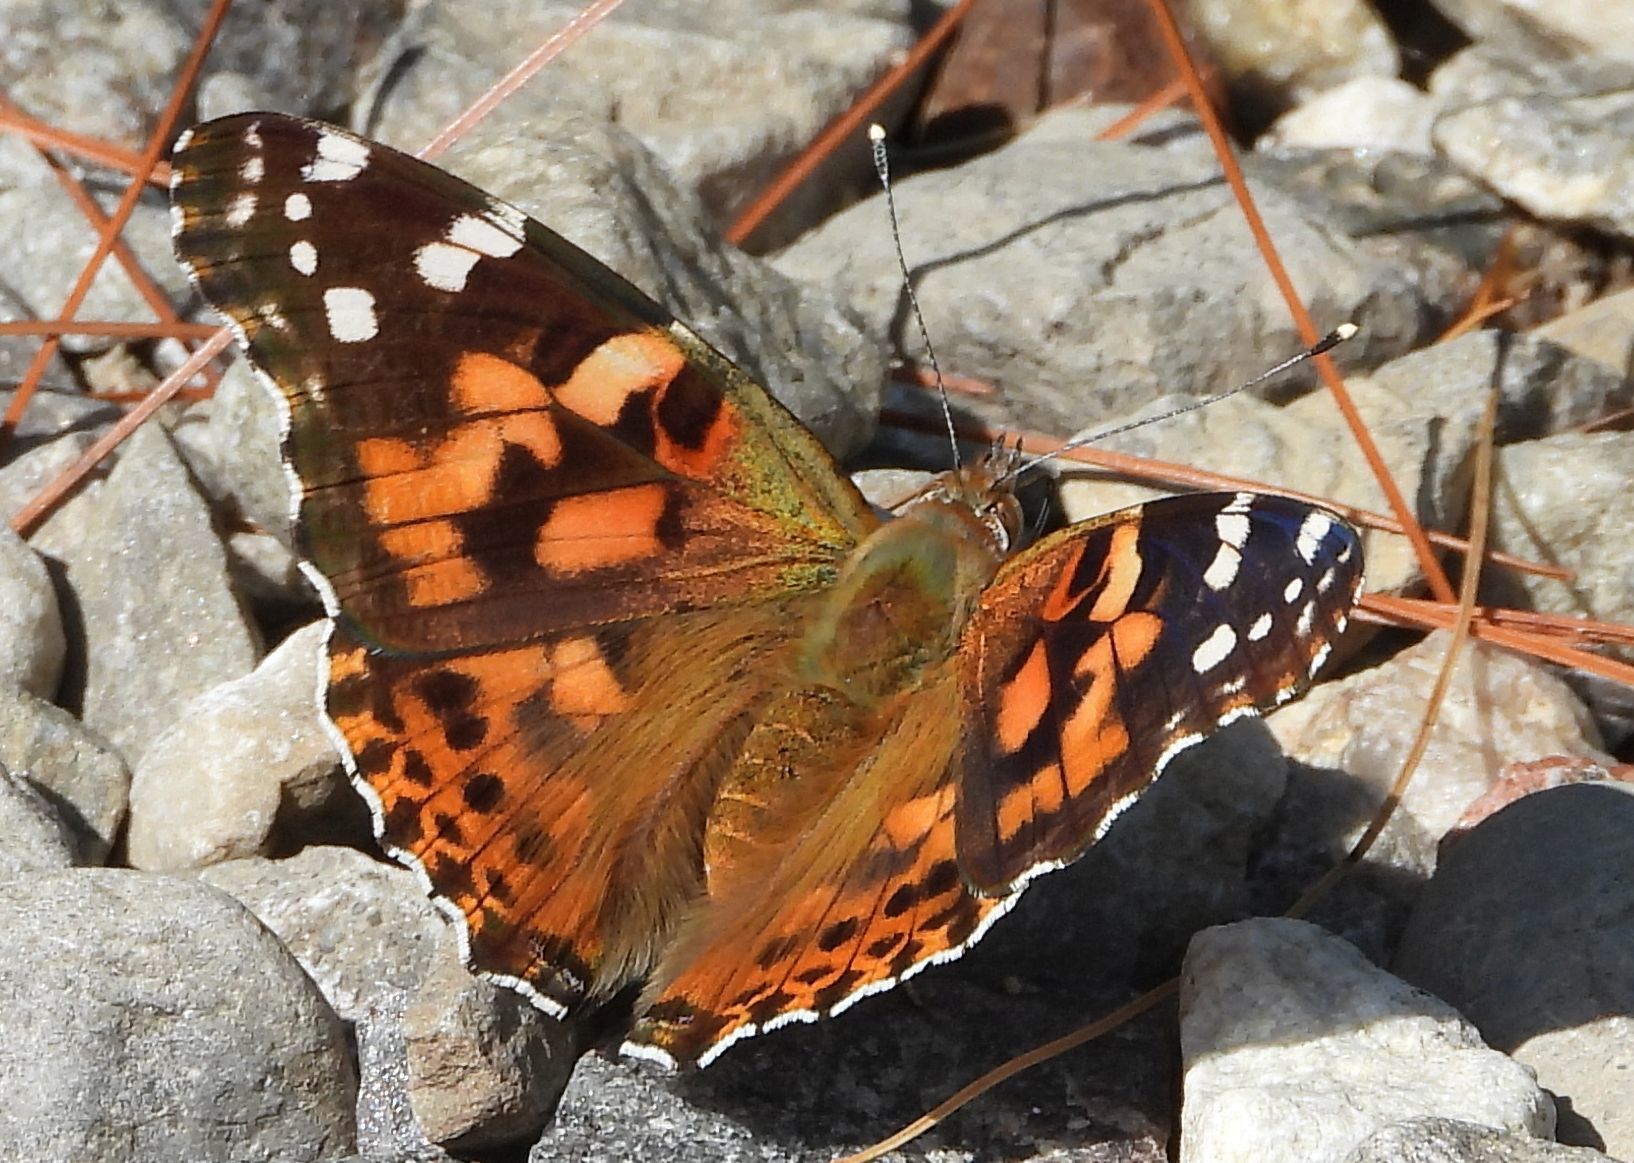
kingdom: Animalia
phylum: Arthropoda
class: Insecta
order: Lepidoptera
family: Nymphalidae
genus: Vanessa
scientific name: Vanessa cardui
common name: Painted lady
